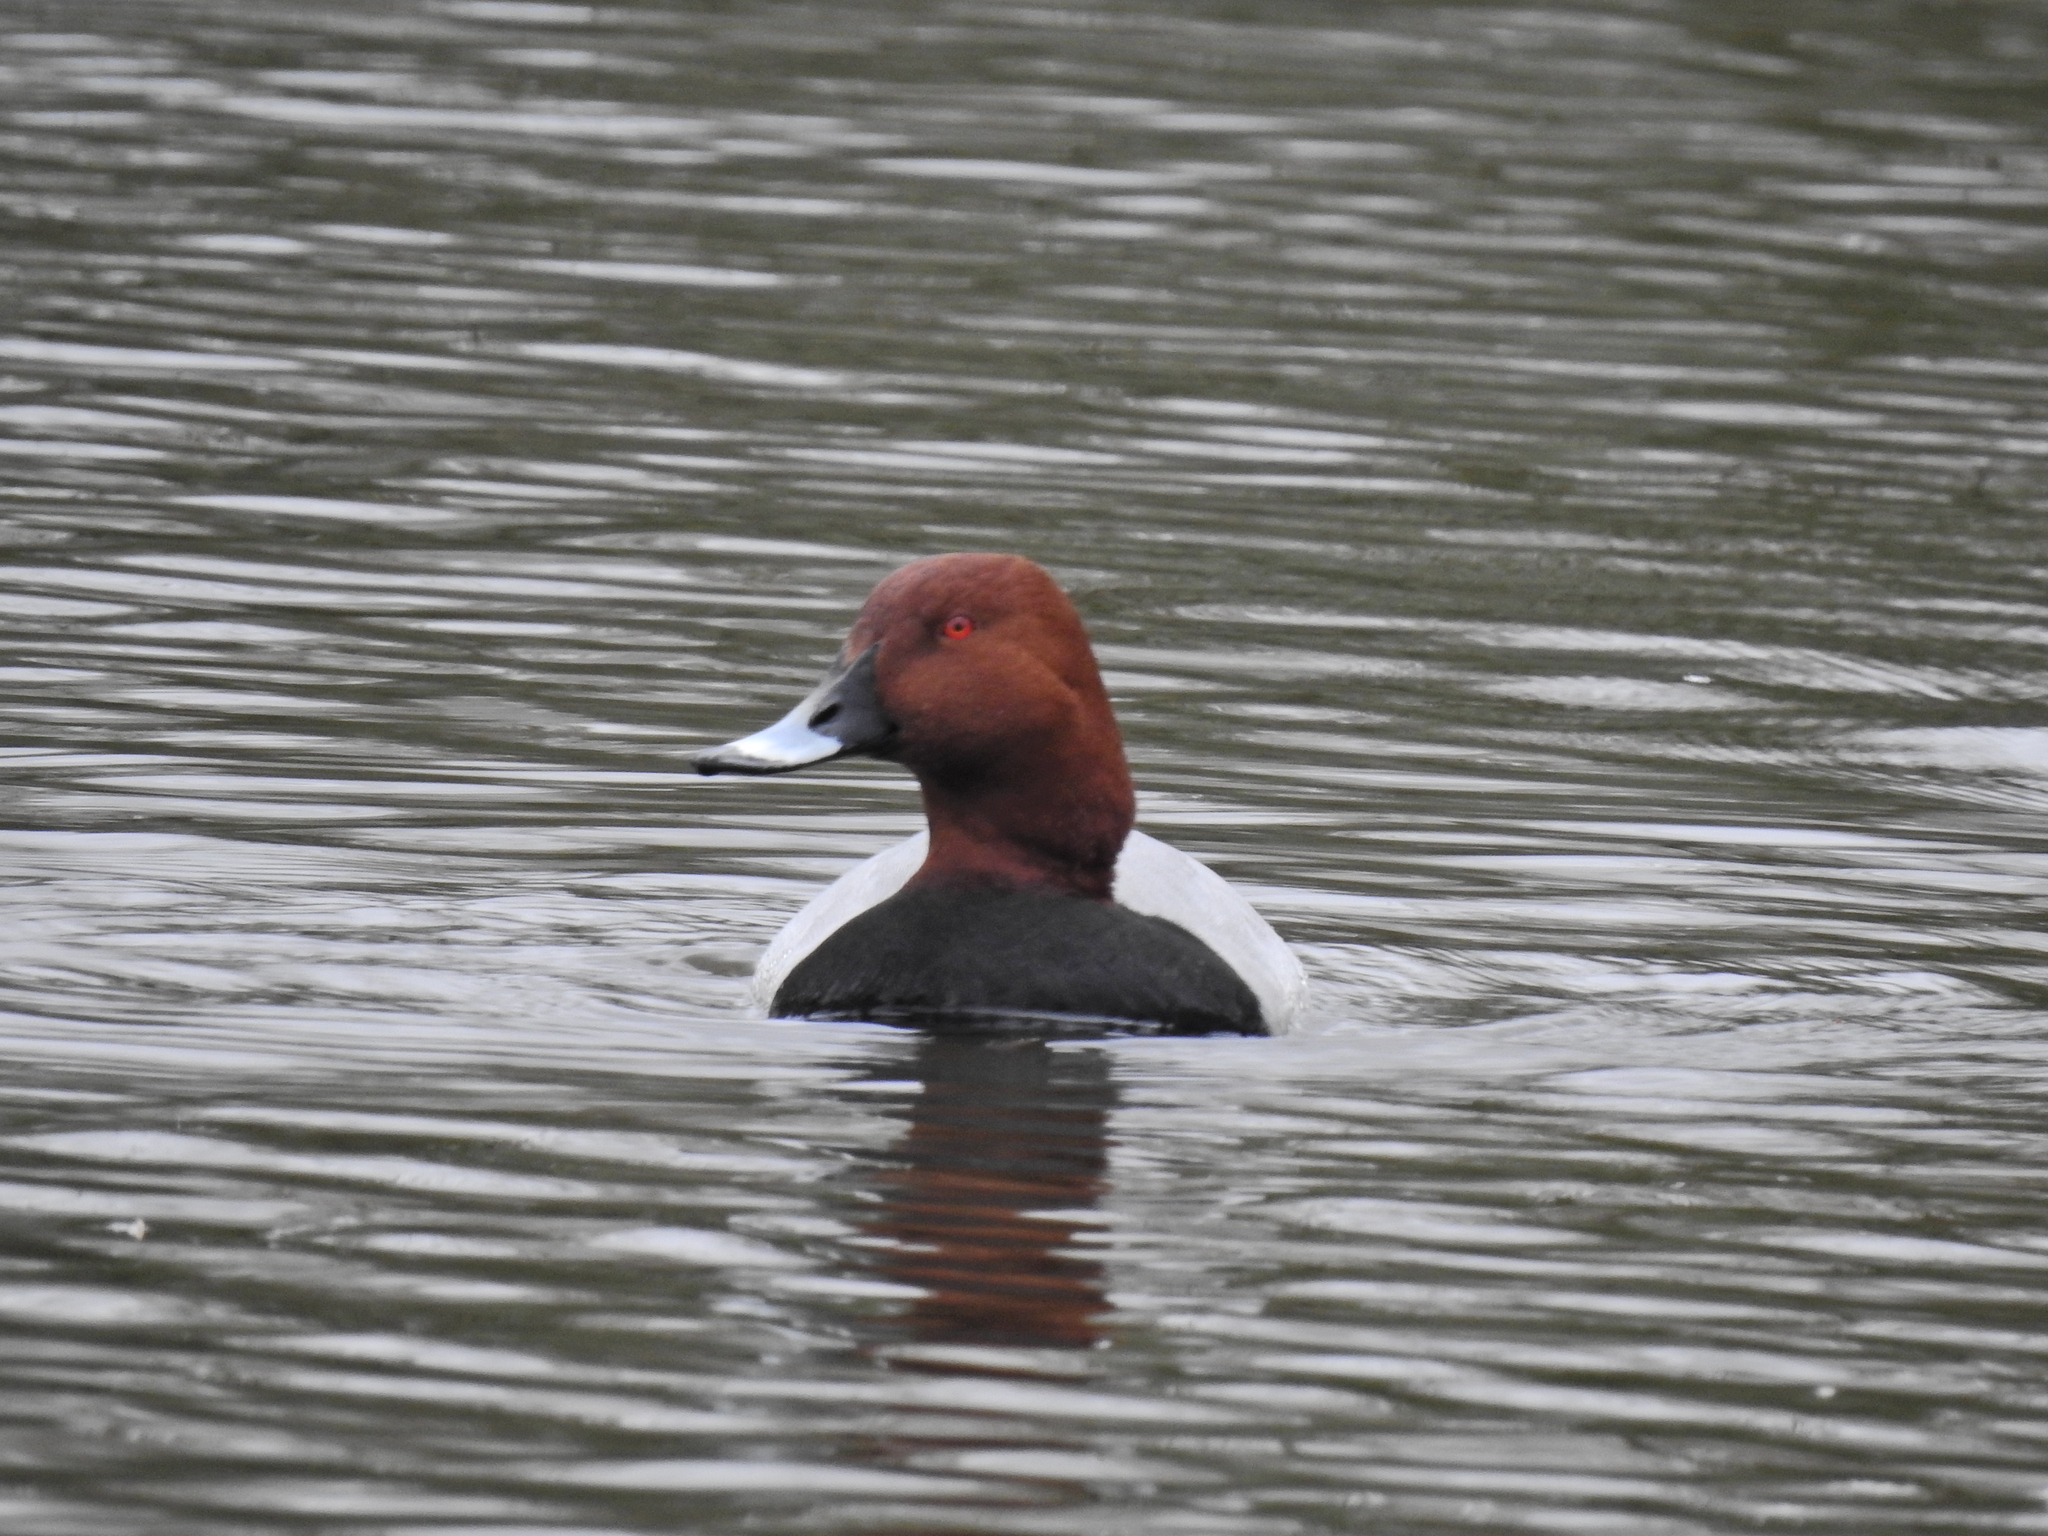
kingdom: Animalia
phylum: Chordata
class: Aves
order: Anseriformes
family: Anatidae
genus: Aythya
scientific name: Aythya ferina
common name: Common pochard
